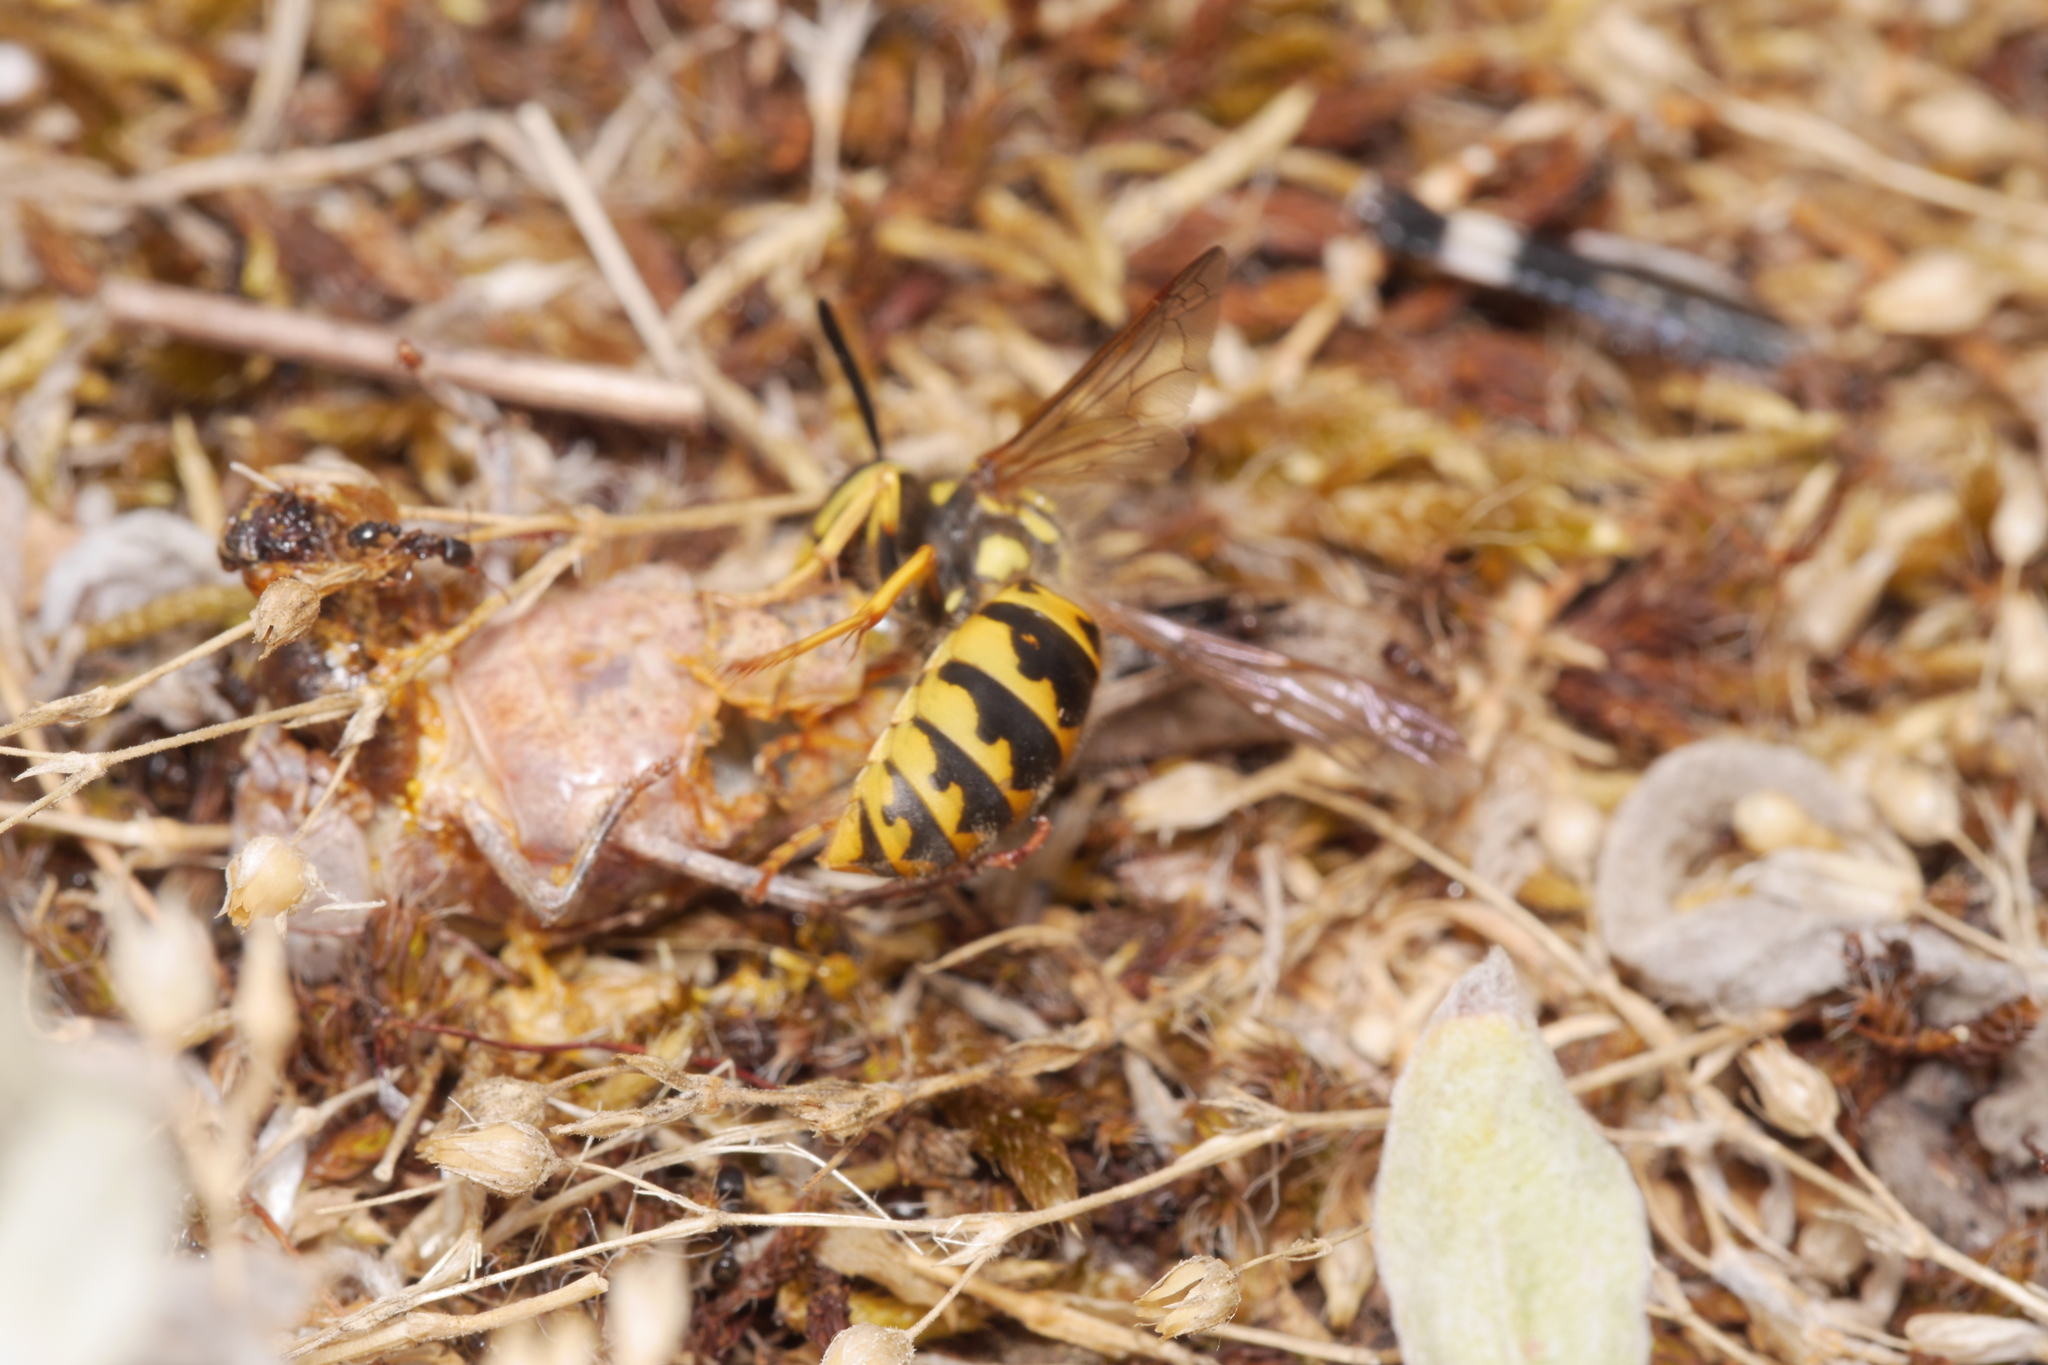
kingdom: Animalia
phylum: Arthropoda
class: Insecta
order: Hymenoptera
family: Vespidae
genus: Vespula
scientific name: Vespula germanica
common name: German wasp
